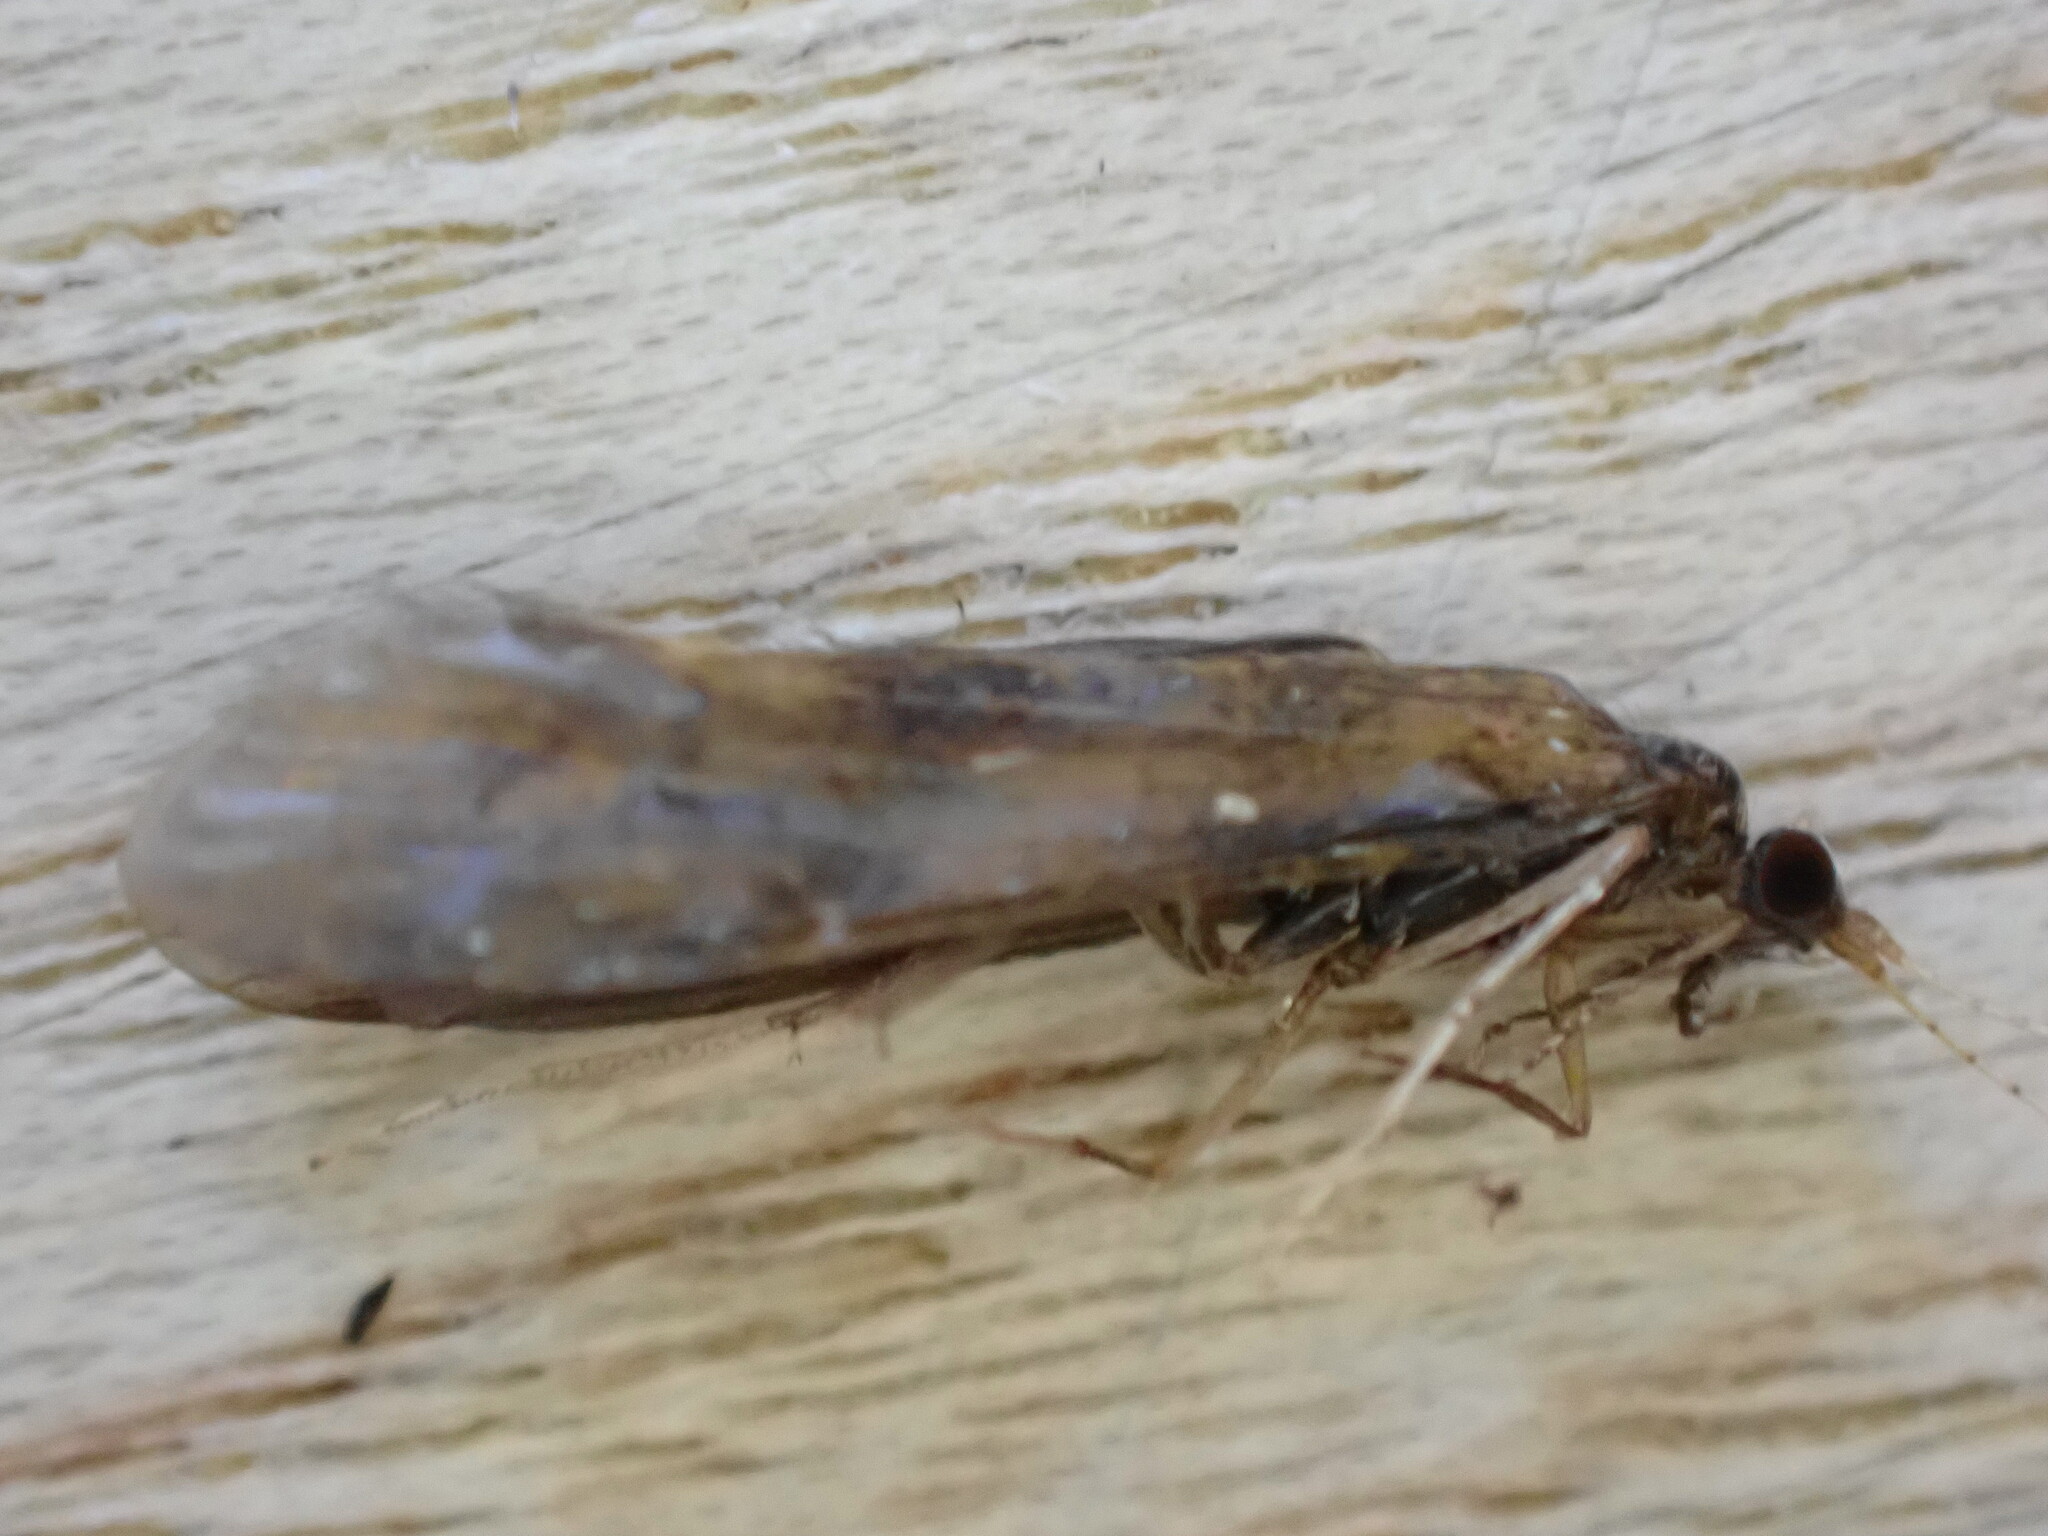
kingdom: Animalia
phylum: Arthropoda
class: Insecta
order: Trichoptera
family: Leptoceridae
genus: Mystacides
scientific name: Mystacides longicornis
